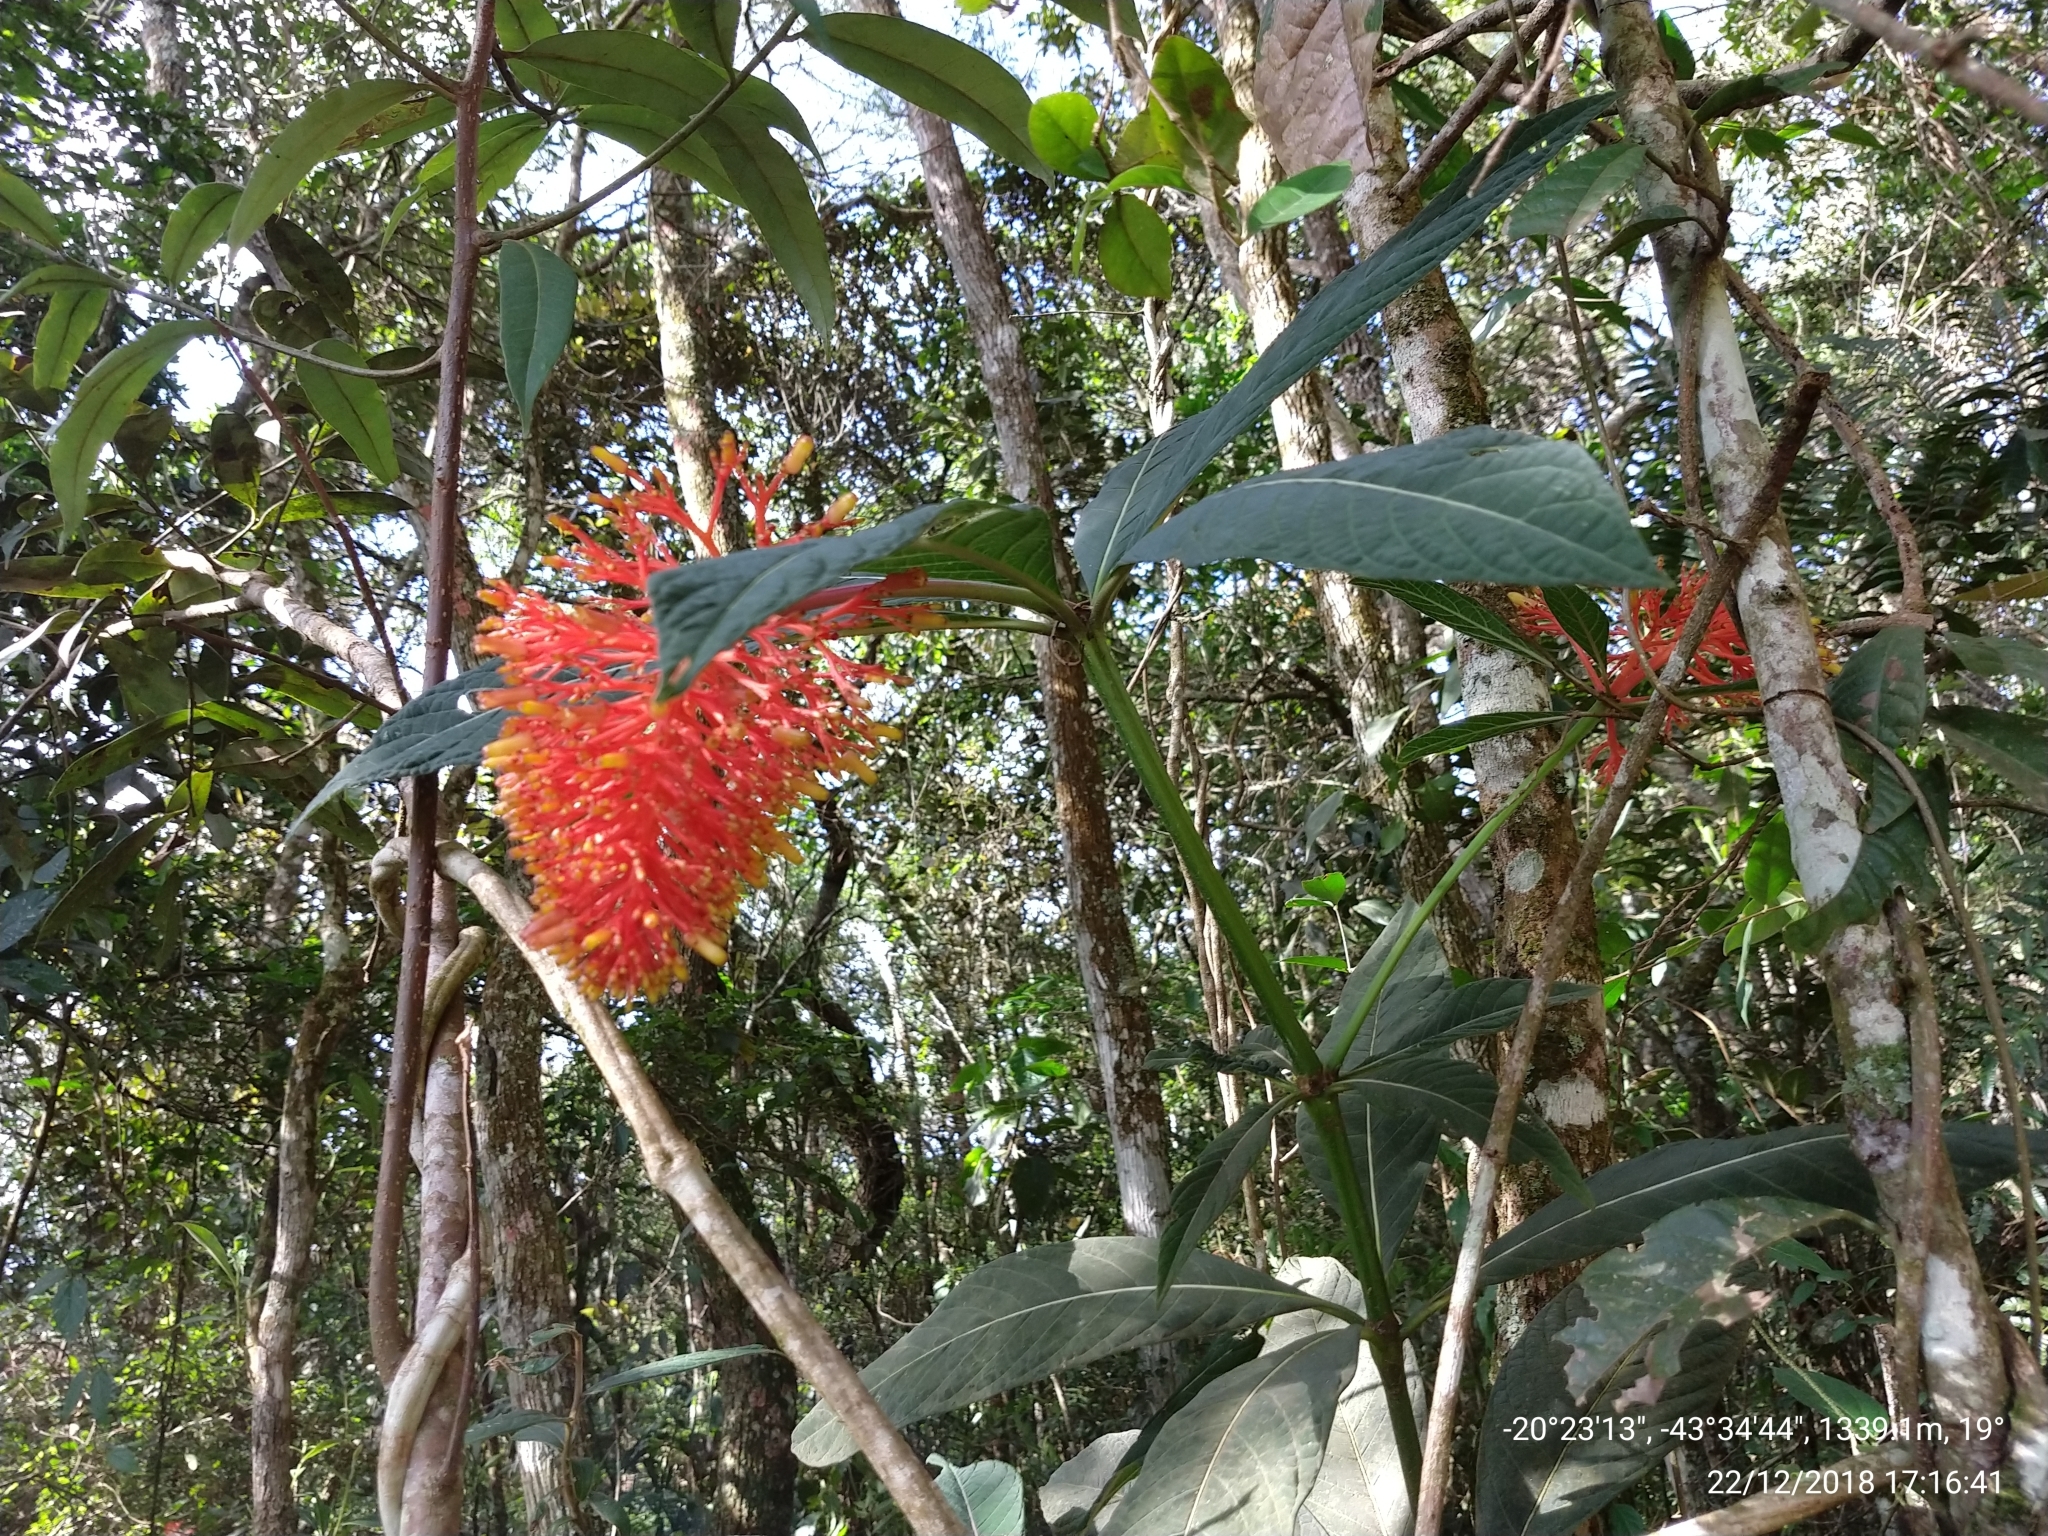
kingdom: Plantae
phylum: Tracheophyta
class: Magnoliopsida
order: Gentianales
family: Rubiaceae
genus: Palicourea
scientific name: Palicourea tetraphylla
